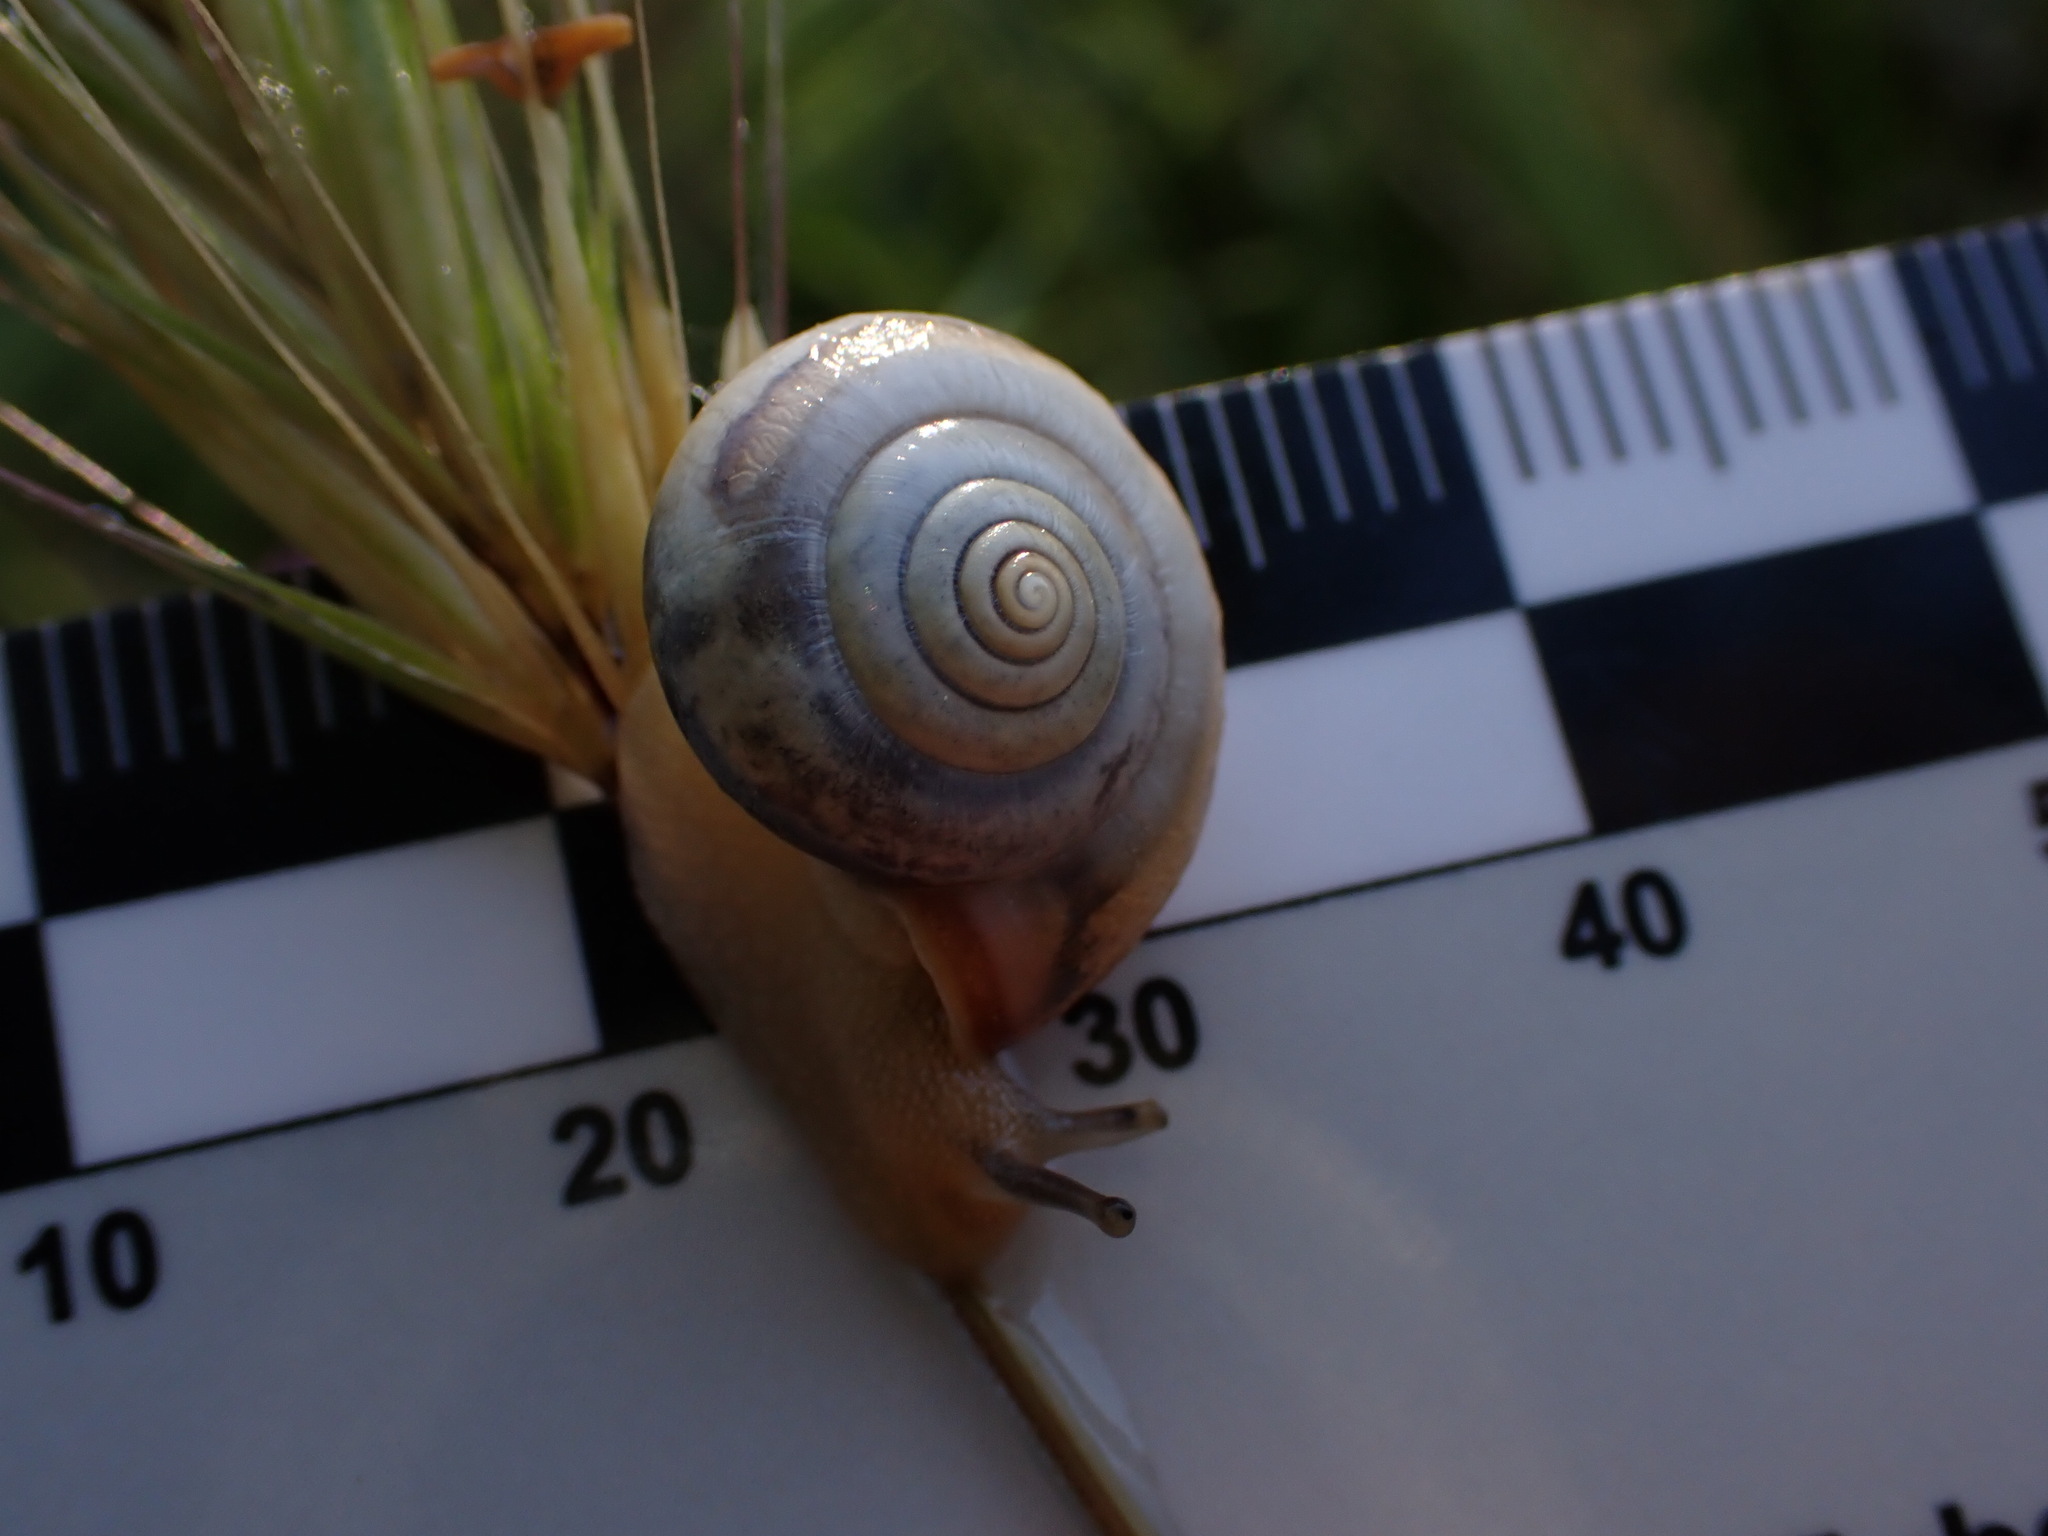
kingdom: Animalia
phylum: Mollusca
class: Gastropoda
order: Stylommatophora
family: Hygromiidae
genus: Monacha
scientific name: Monacha cartusiana
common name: Carthusian snail
